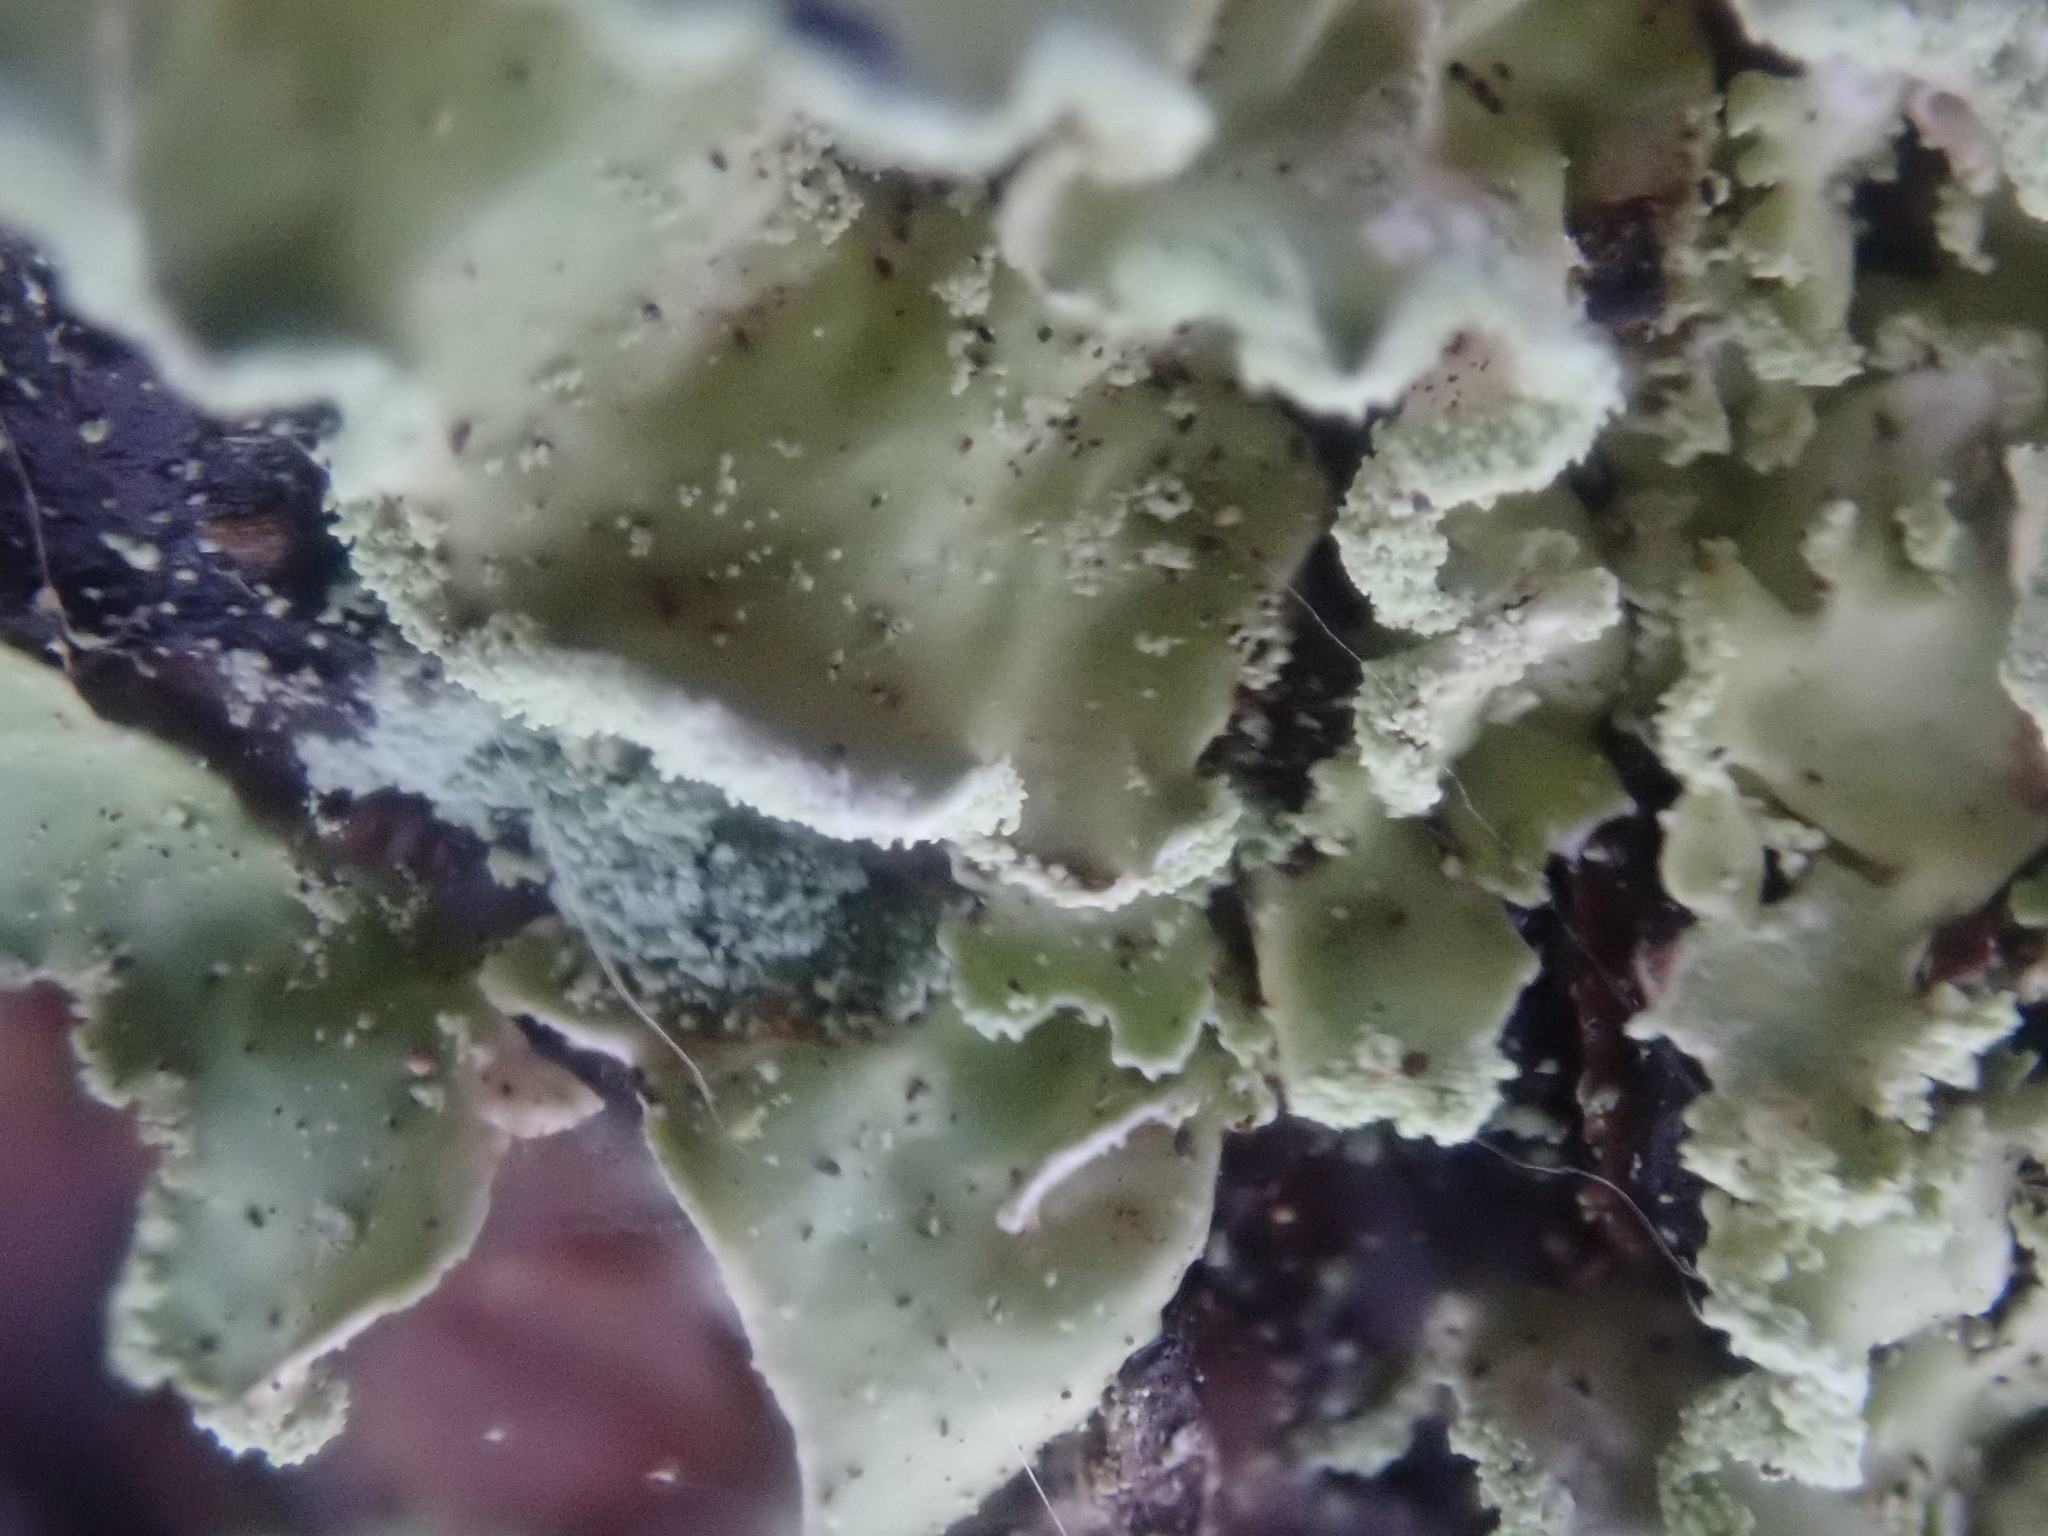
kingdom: Fungi
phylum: Ascomycota
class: Lecanoromycetes
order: Lecanorales
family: Parmeliaceae
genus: Usnocetraria
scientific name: Usnocetraria oakesiana
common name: Yellow ribbon lichen
